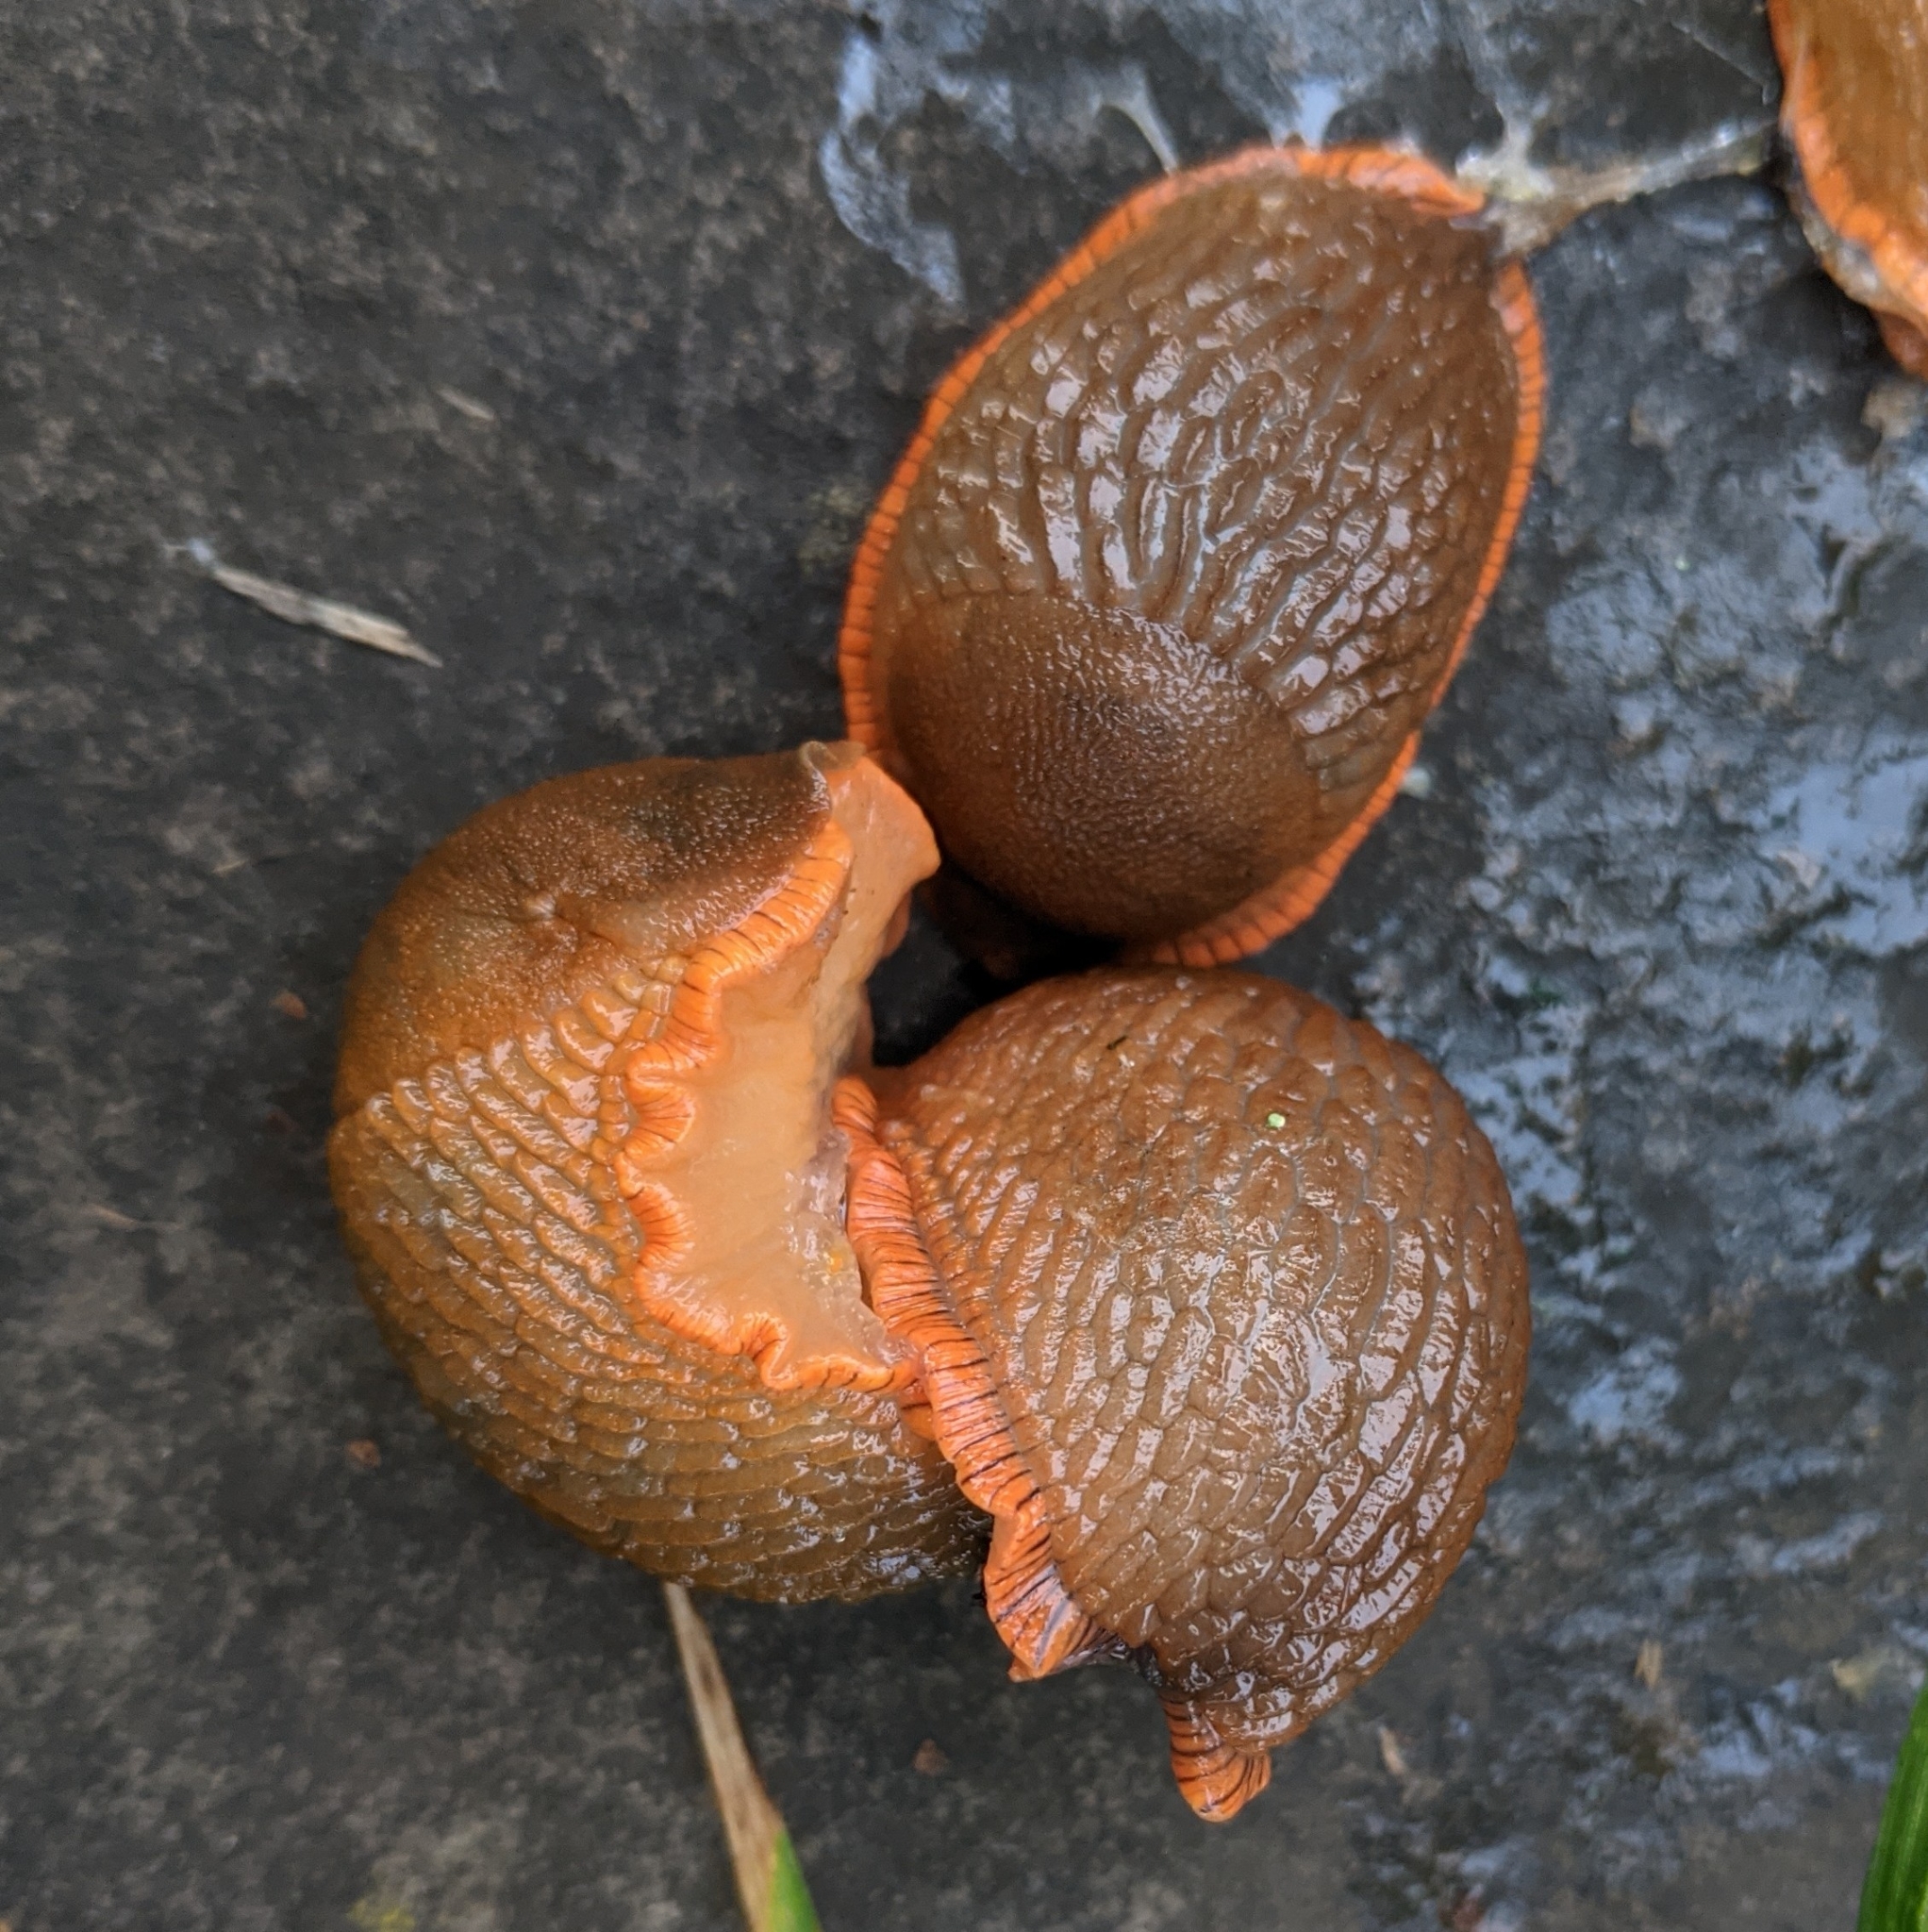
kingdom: Animalia
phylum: Mollusca
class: Gastropoda
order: Stylommatophora
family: Arionidae
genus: Arion
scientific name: Arion
